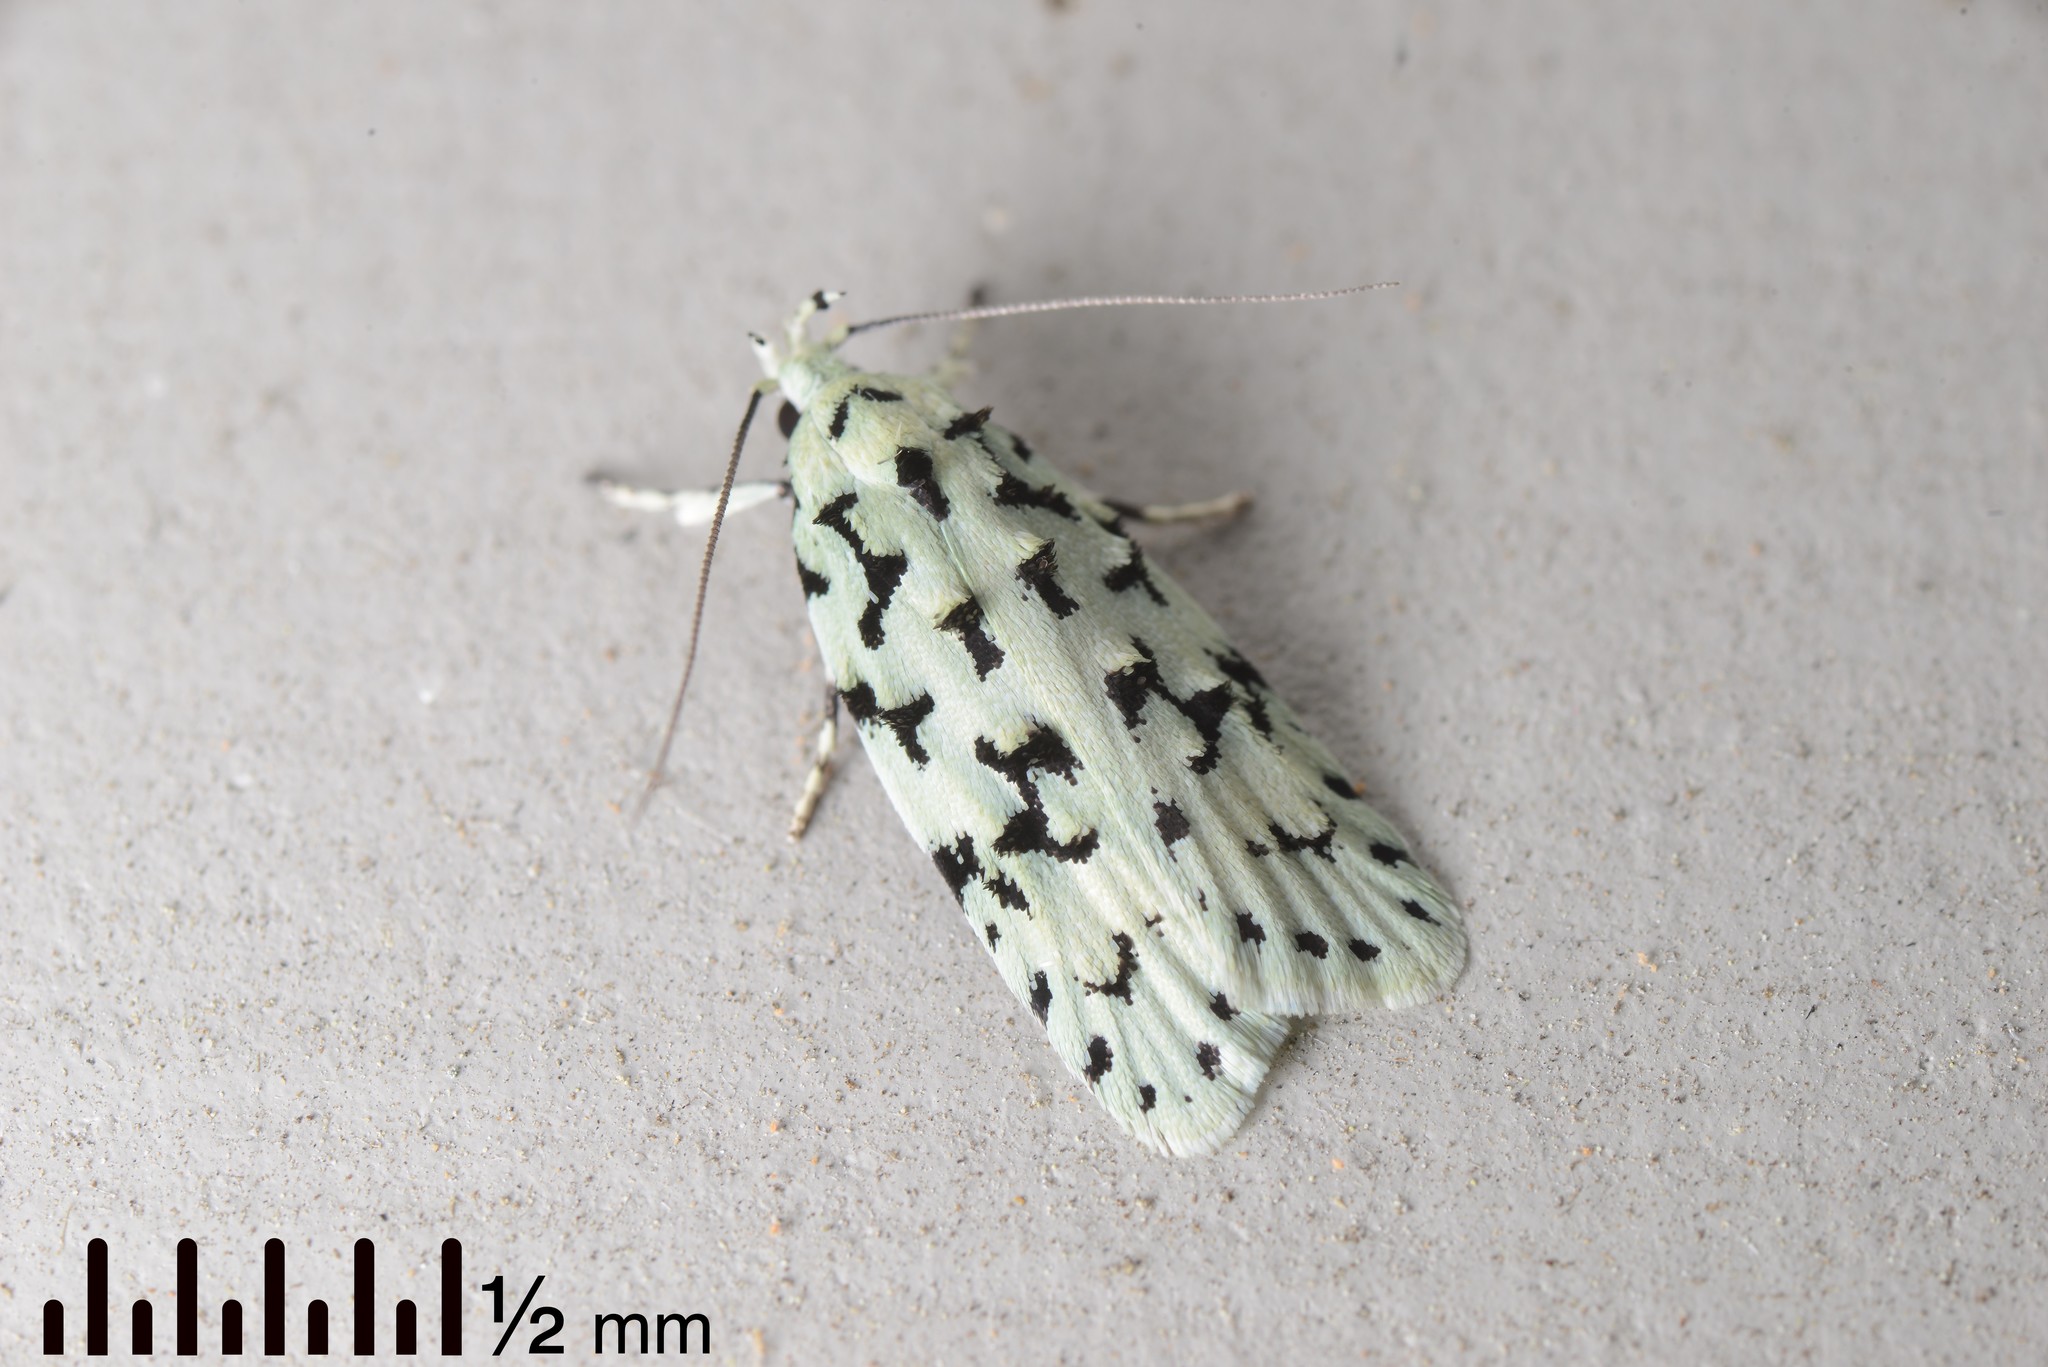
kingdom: Animalia
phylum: Arthropoda
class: Insecta
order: Lepidoptera
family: Oecophoridae
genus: Izatha
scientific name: Izatha huttoni
